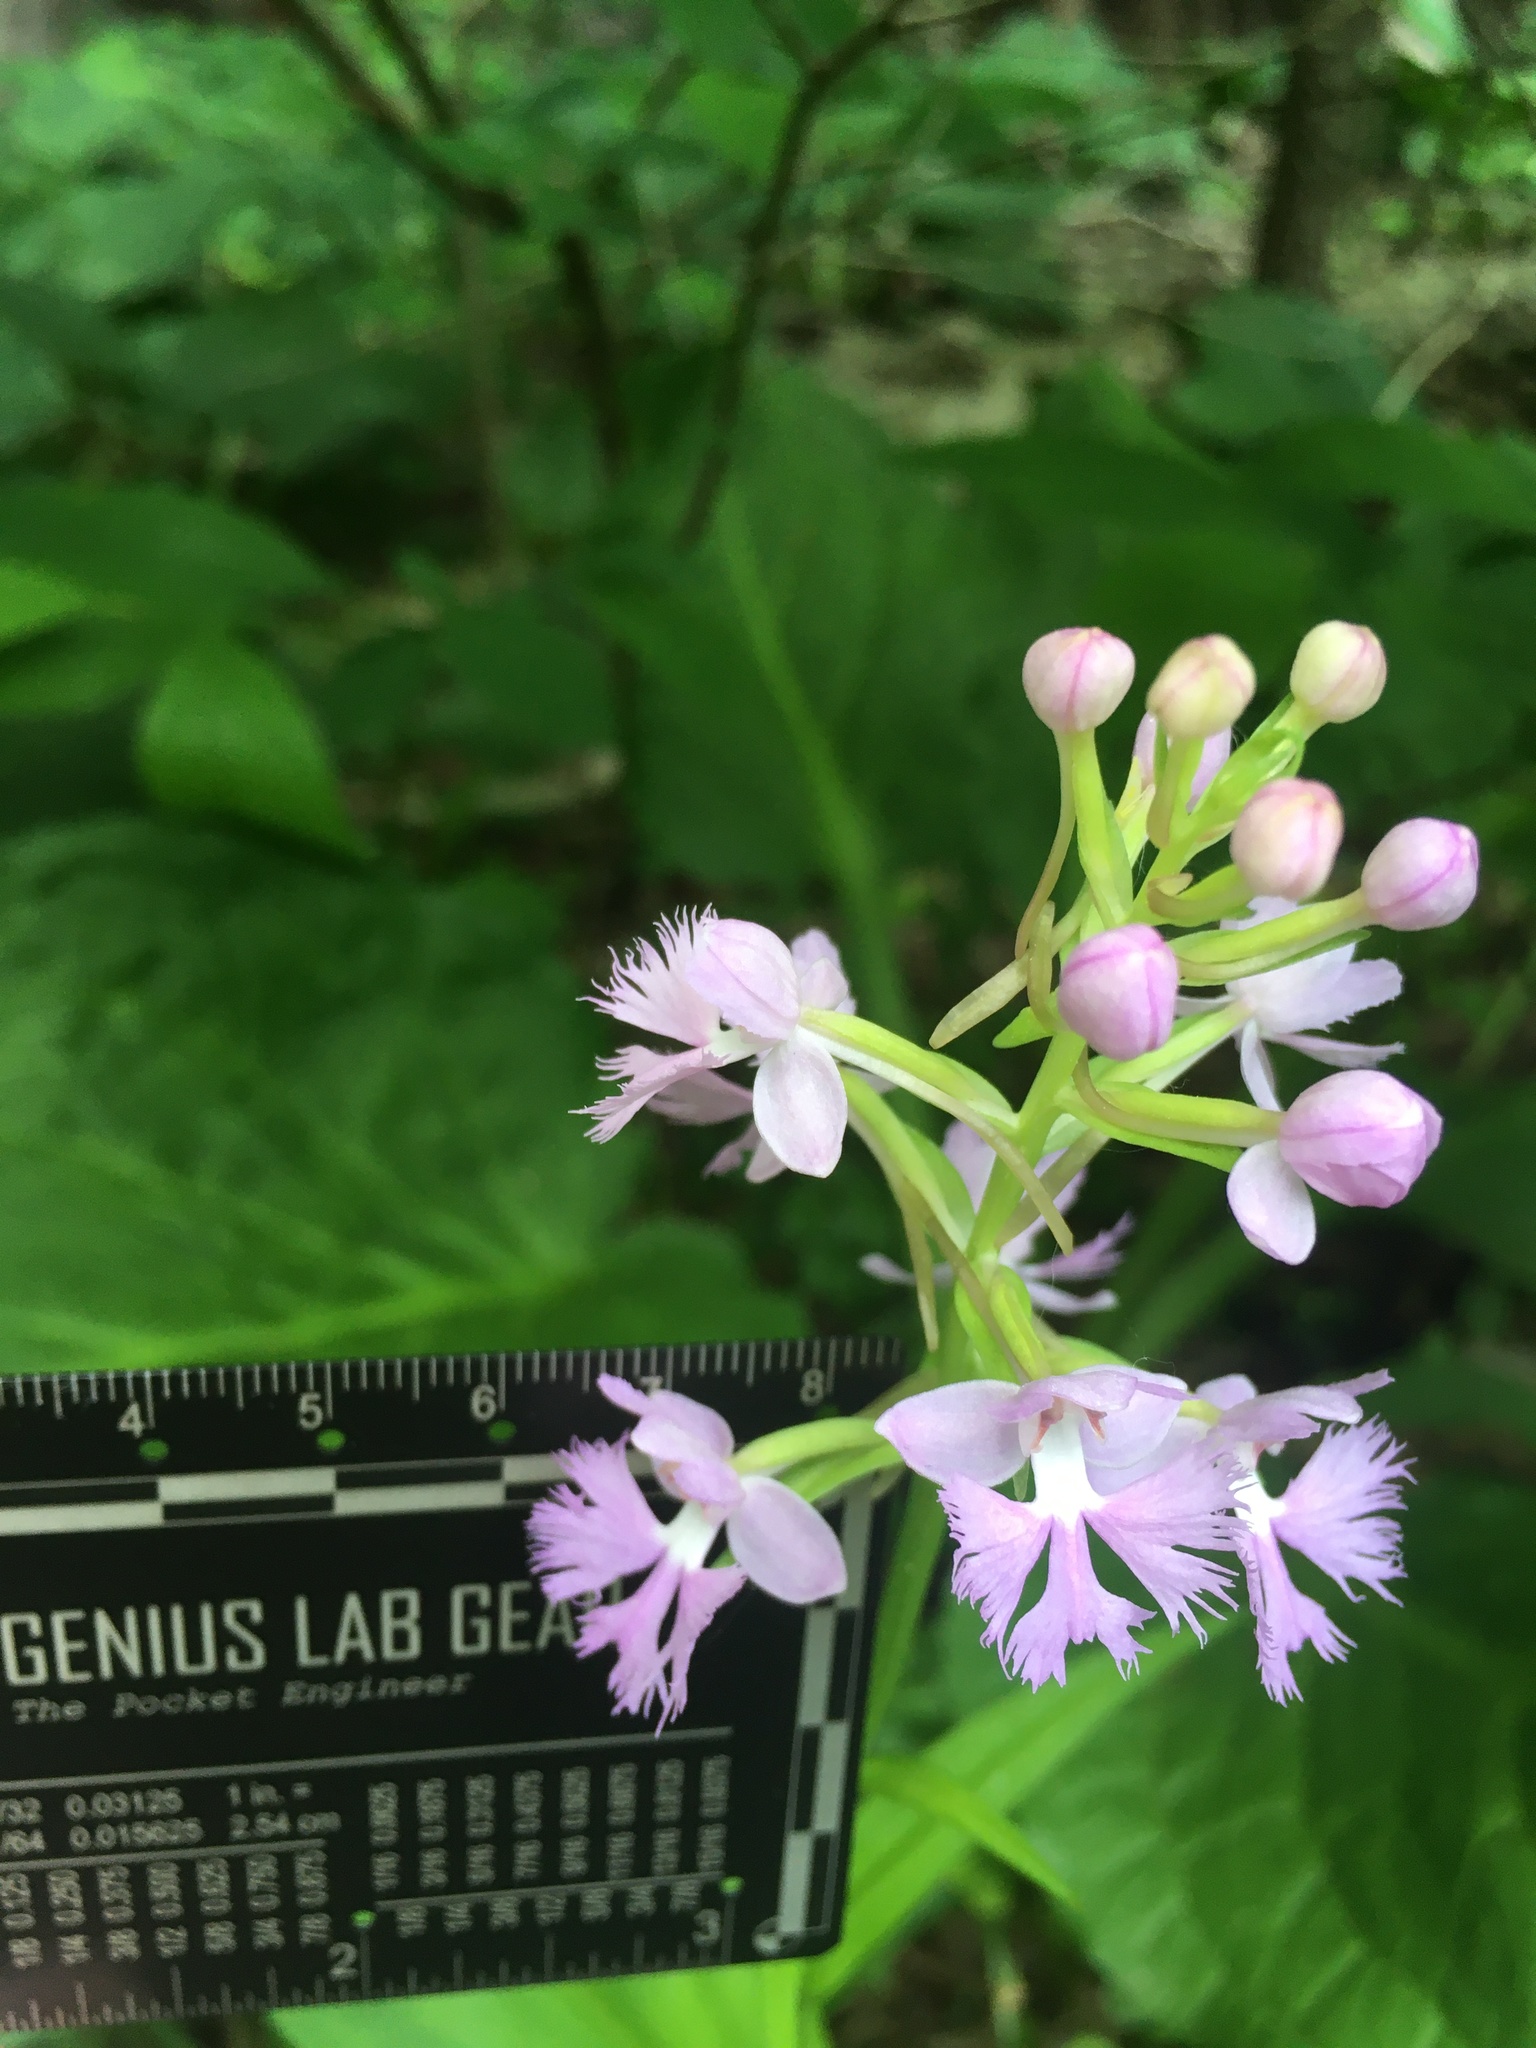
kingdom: Plantae
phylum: Tracheophyta
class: Liliopsida
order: Asparagales
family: Orchidaceae
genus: Platanthera
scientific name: Platanthera grandiflora
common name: Greater purple fringed orchid
